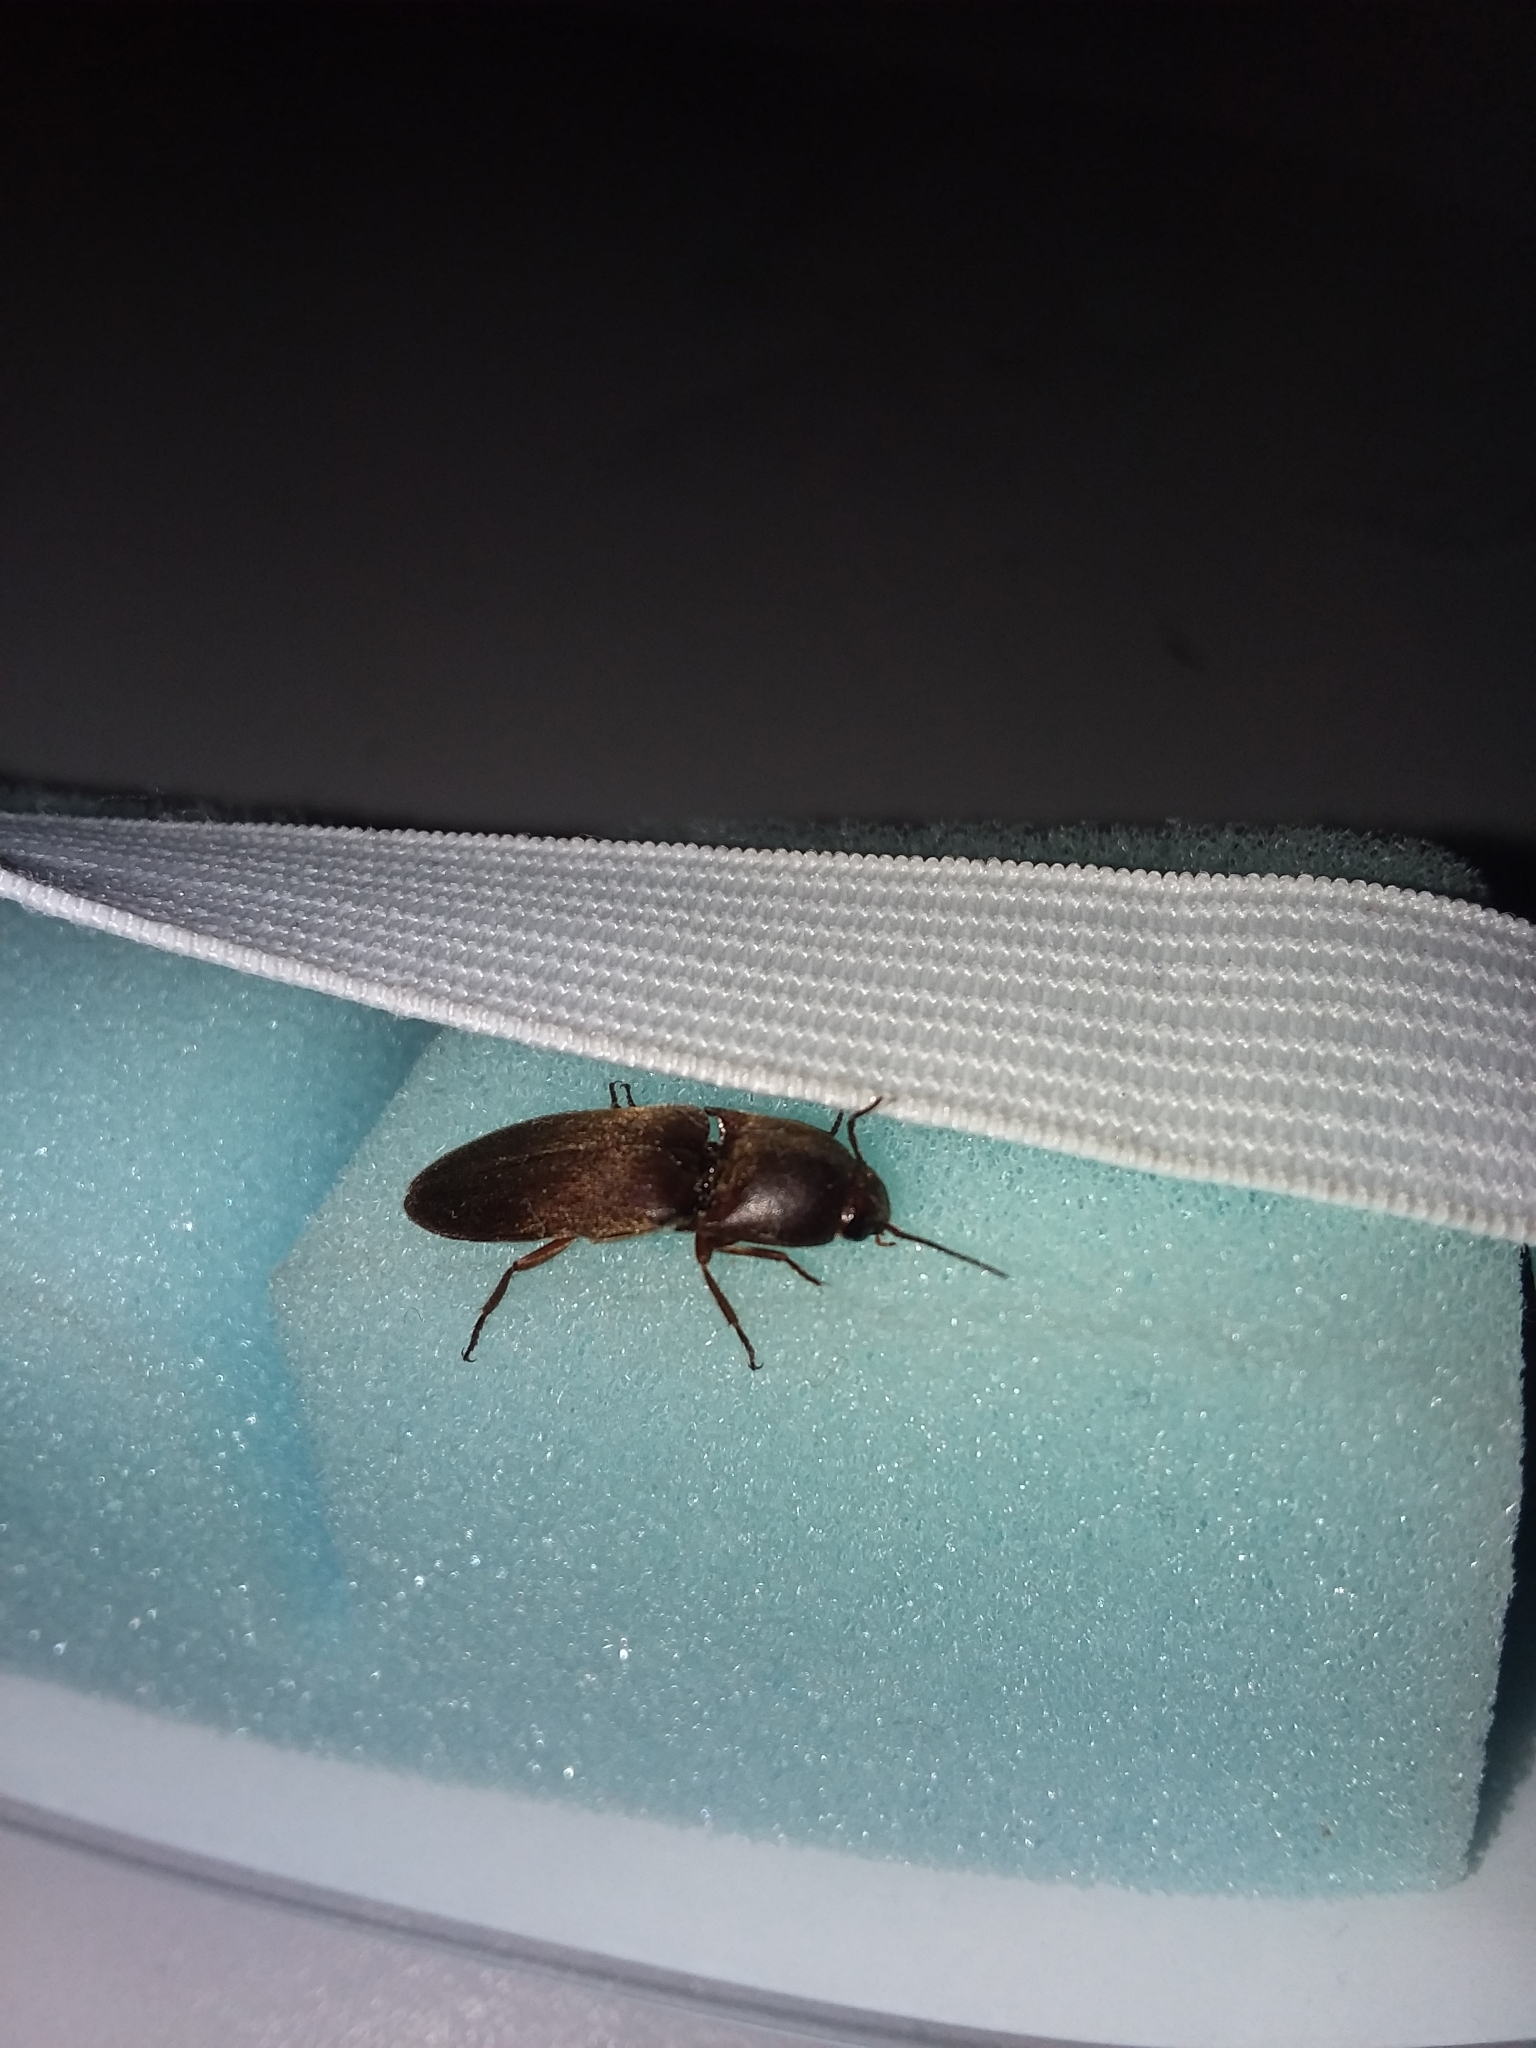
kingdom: Animalia
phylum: Arthropoda
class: Insecta
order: Coleoptera
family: Elateridae
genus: Diplostethus
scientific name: Diplostethus
